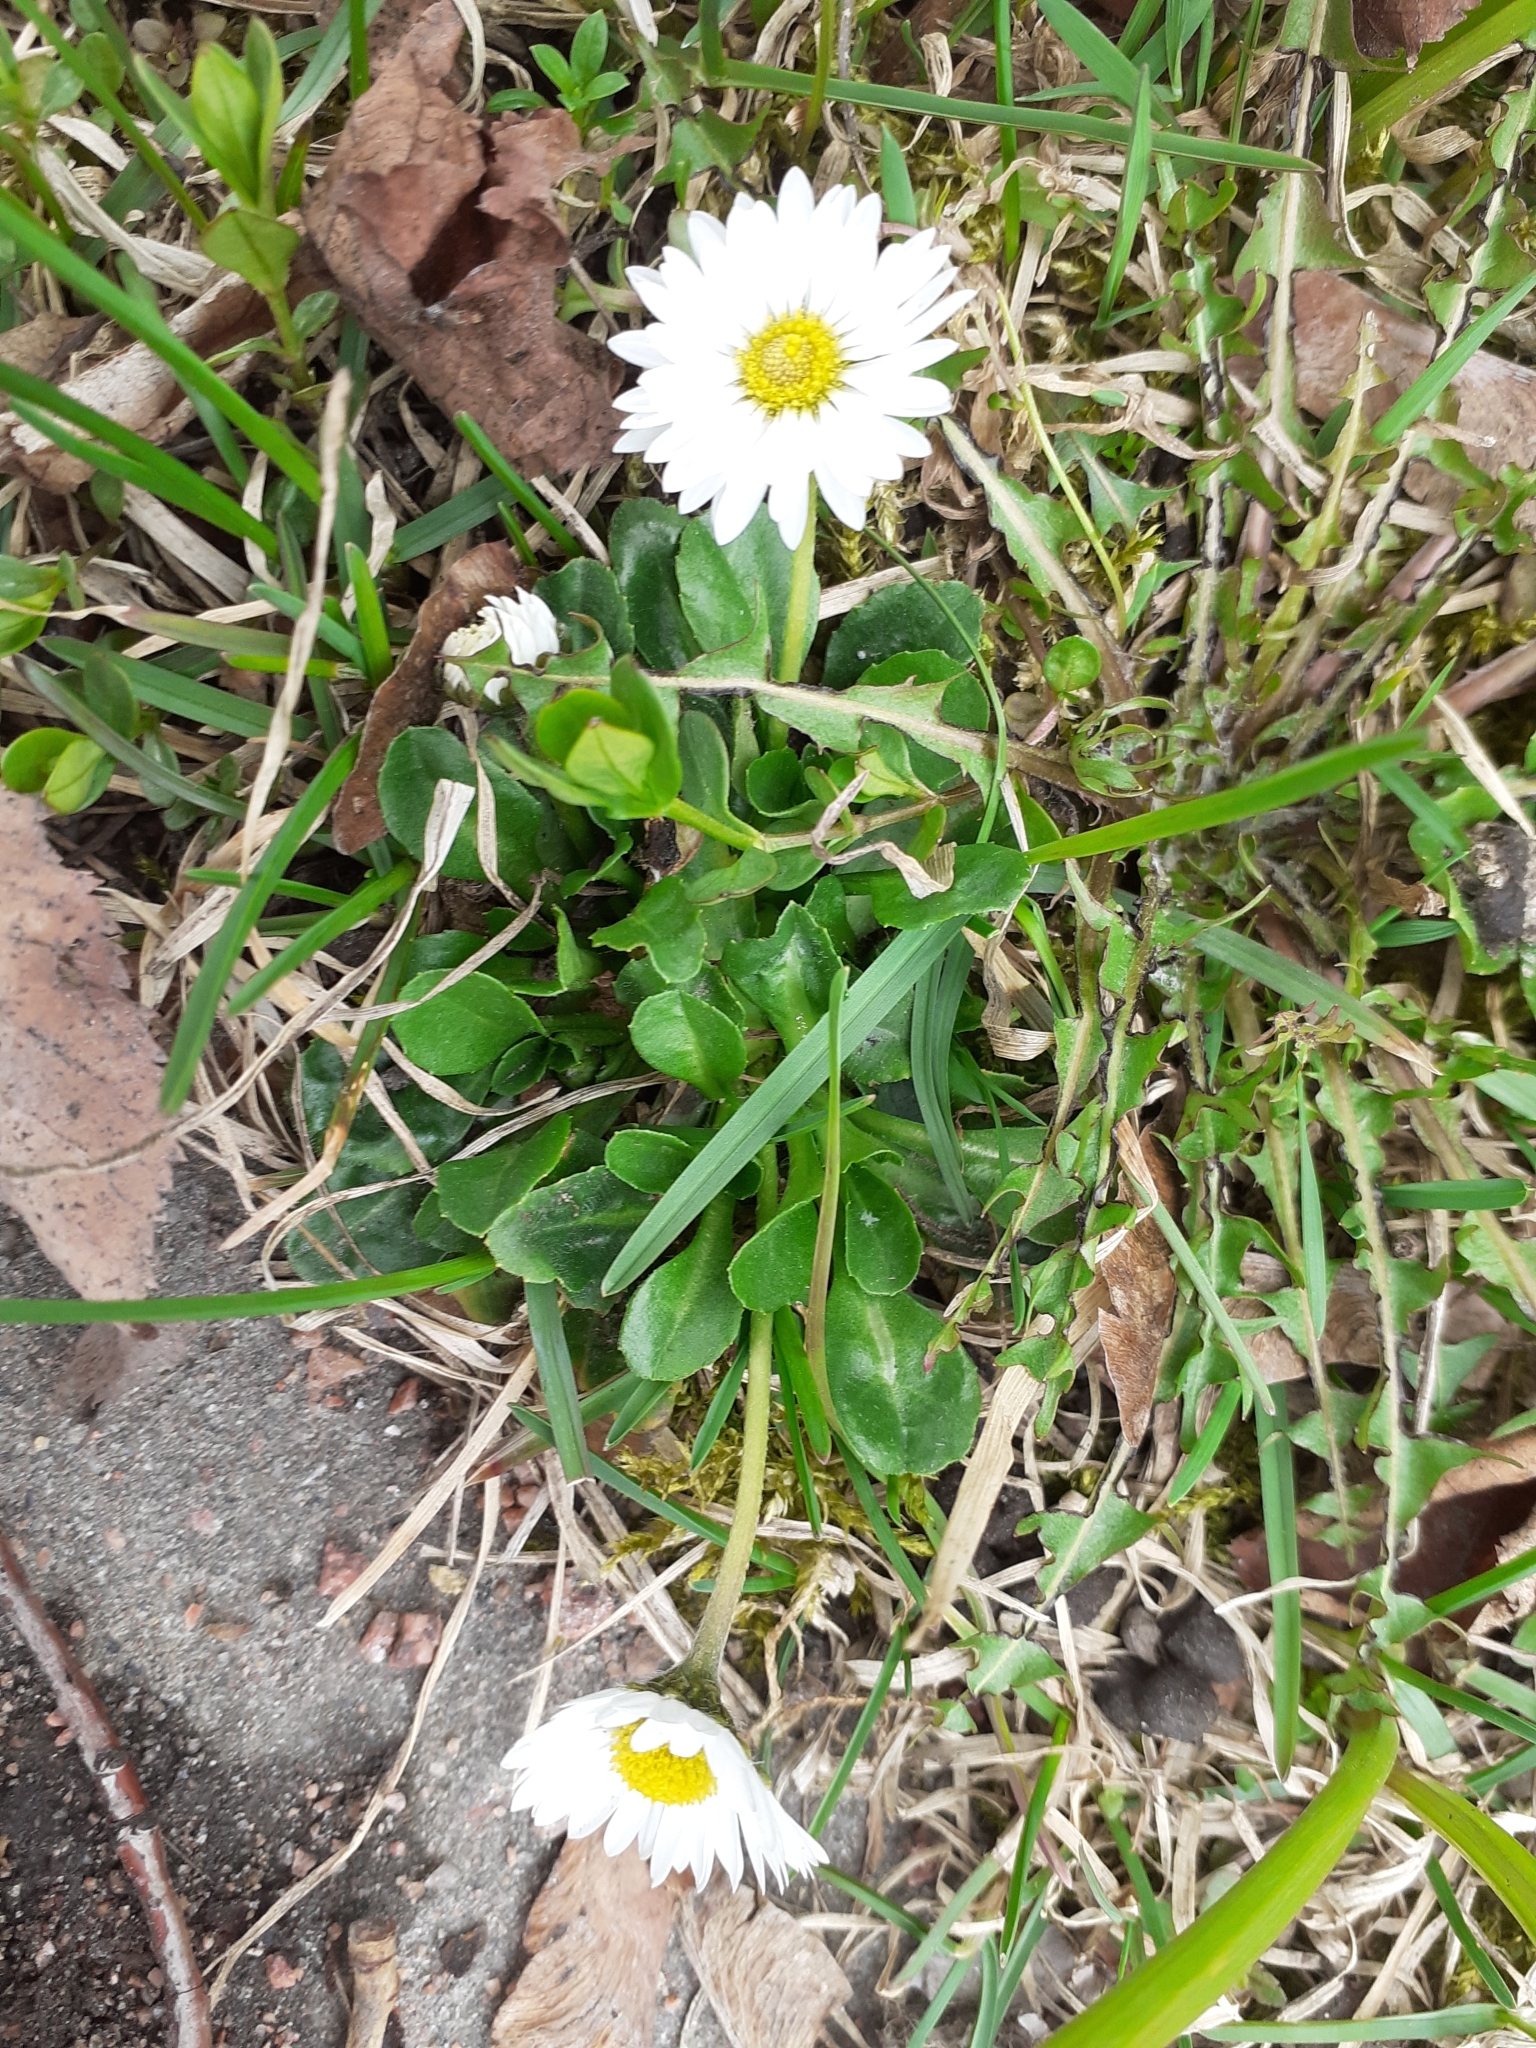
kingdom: Plantae
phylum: Tracheophyta
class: Magnoliopsida
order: Asterales
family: Asteraceae
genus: Bellis
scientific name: Bellis perennis
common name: Lawndaisy
